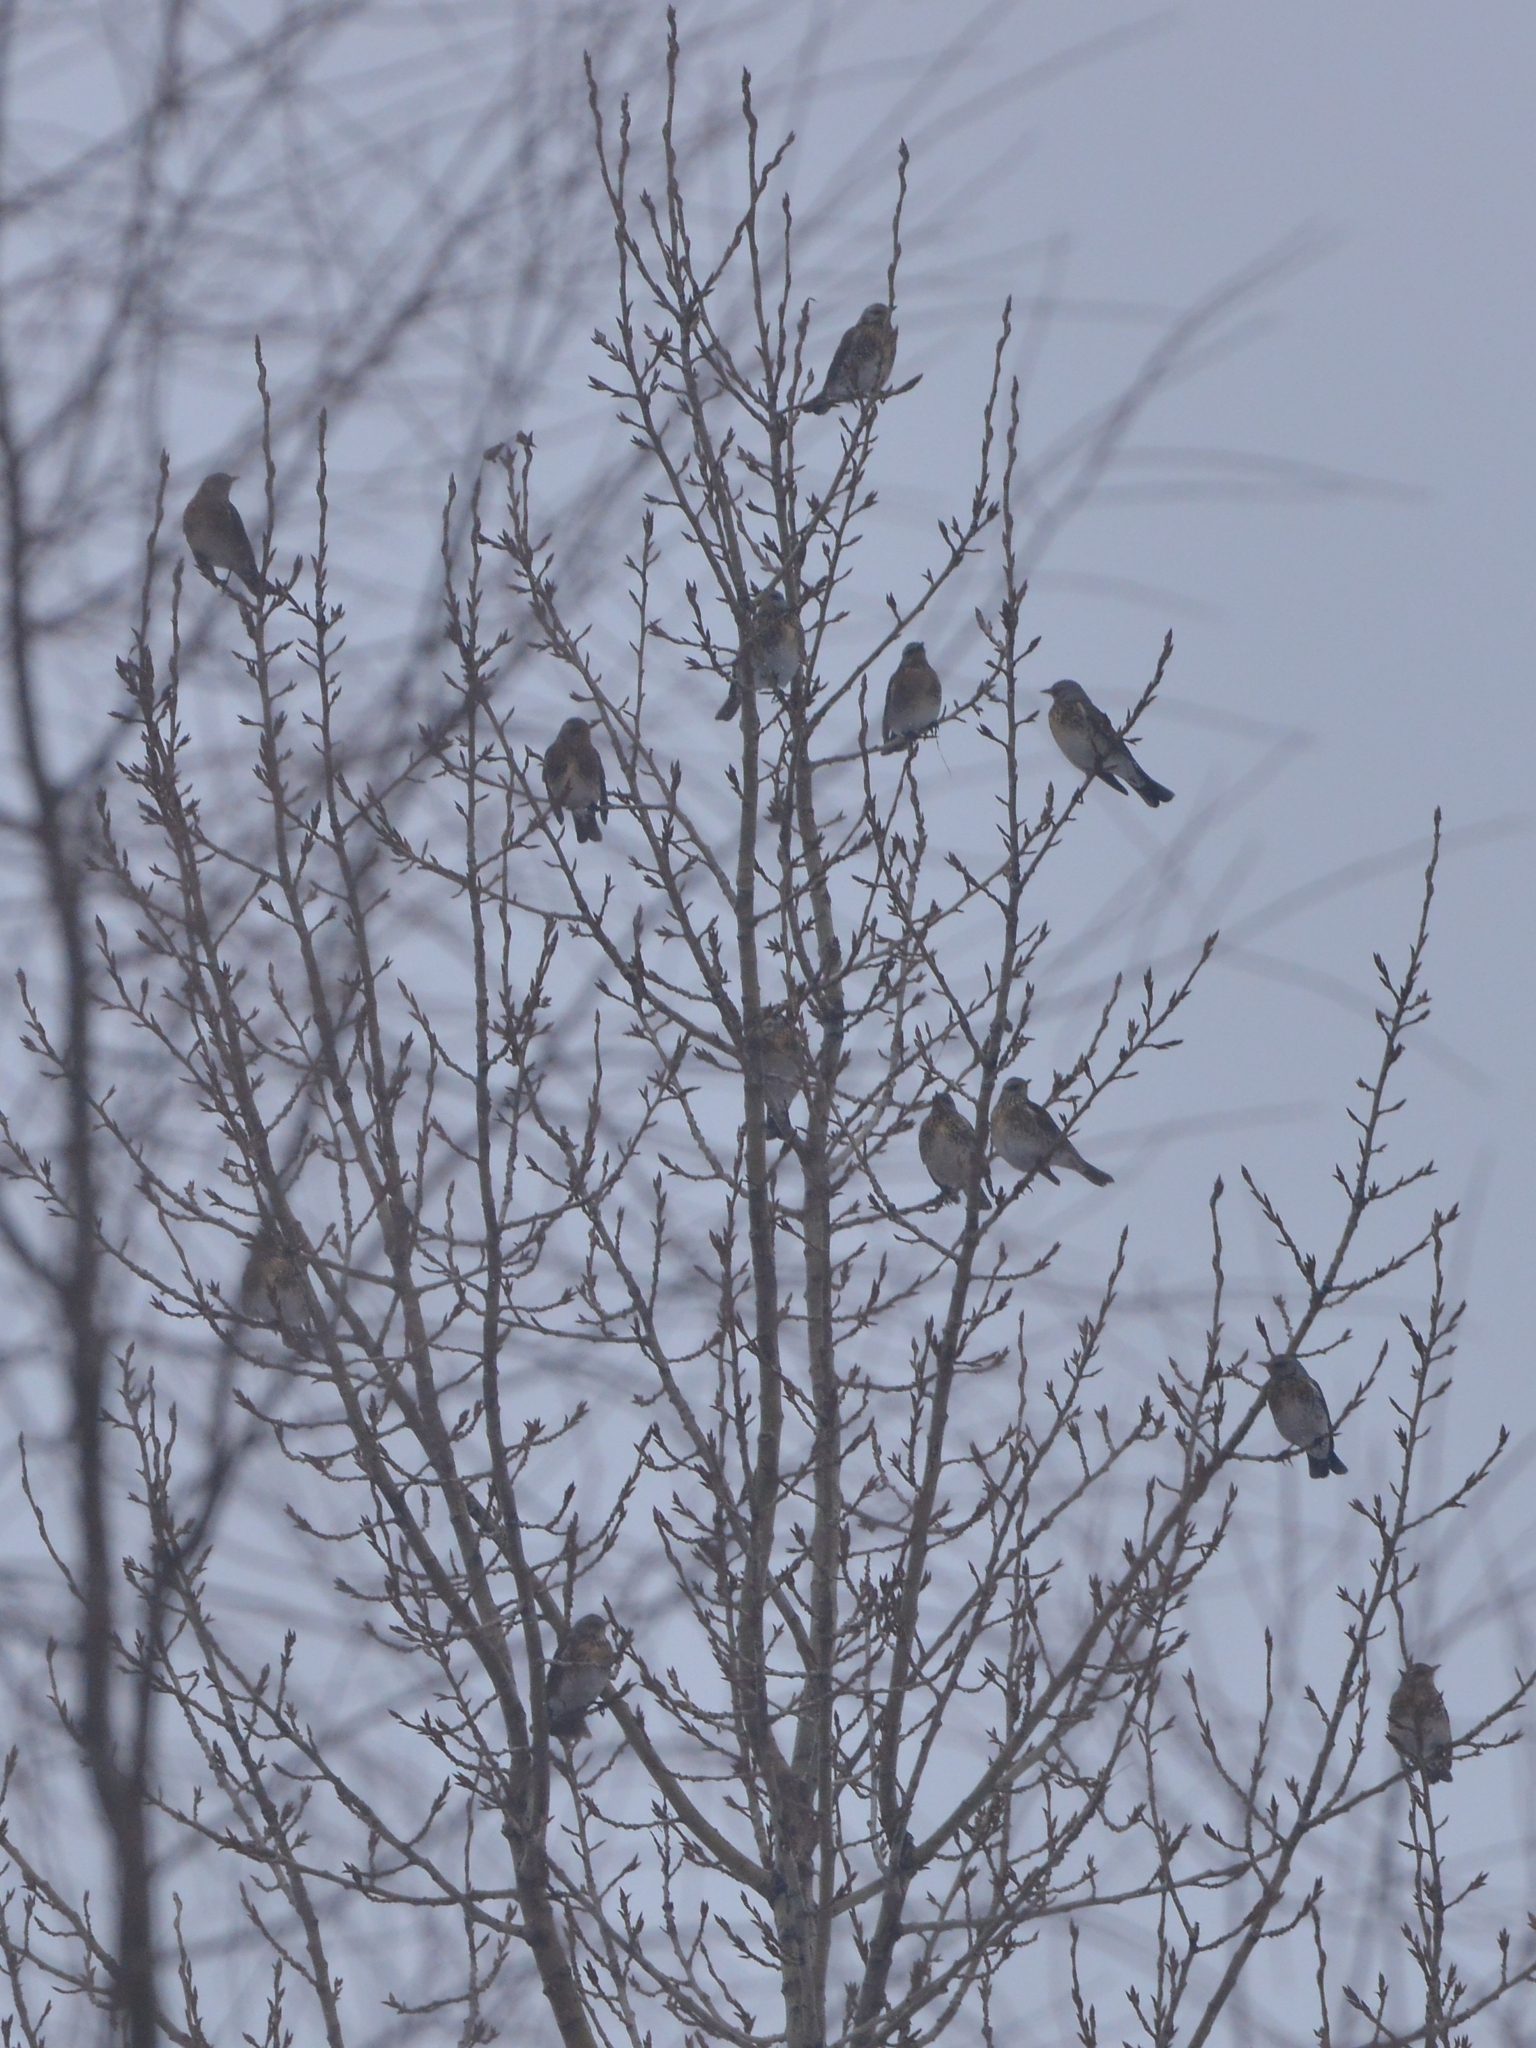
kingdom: Animalia
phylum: Chordata
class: Aves
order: Passeriformes
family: Turdidae
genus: Turdus
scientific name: Turdus pilaris
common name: Fieldfare
